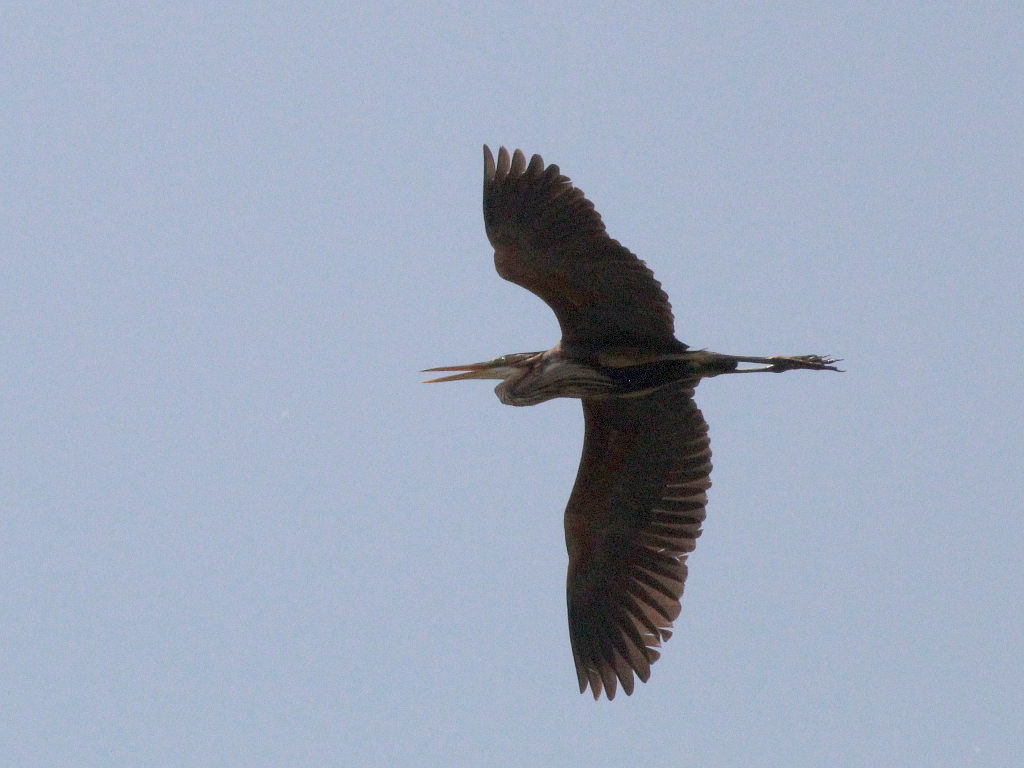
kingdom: Animalia
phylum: Chordata
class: Aves
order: Pelecaniformes
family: Ardeidae
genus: Ardea
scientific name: Ardea purpurea
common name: Purple heron
